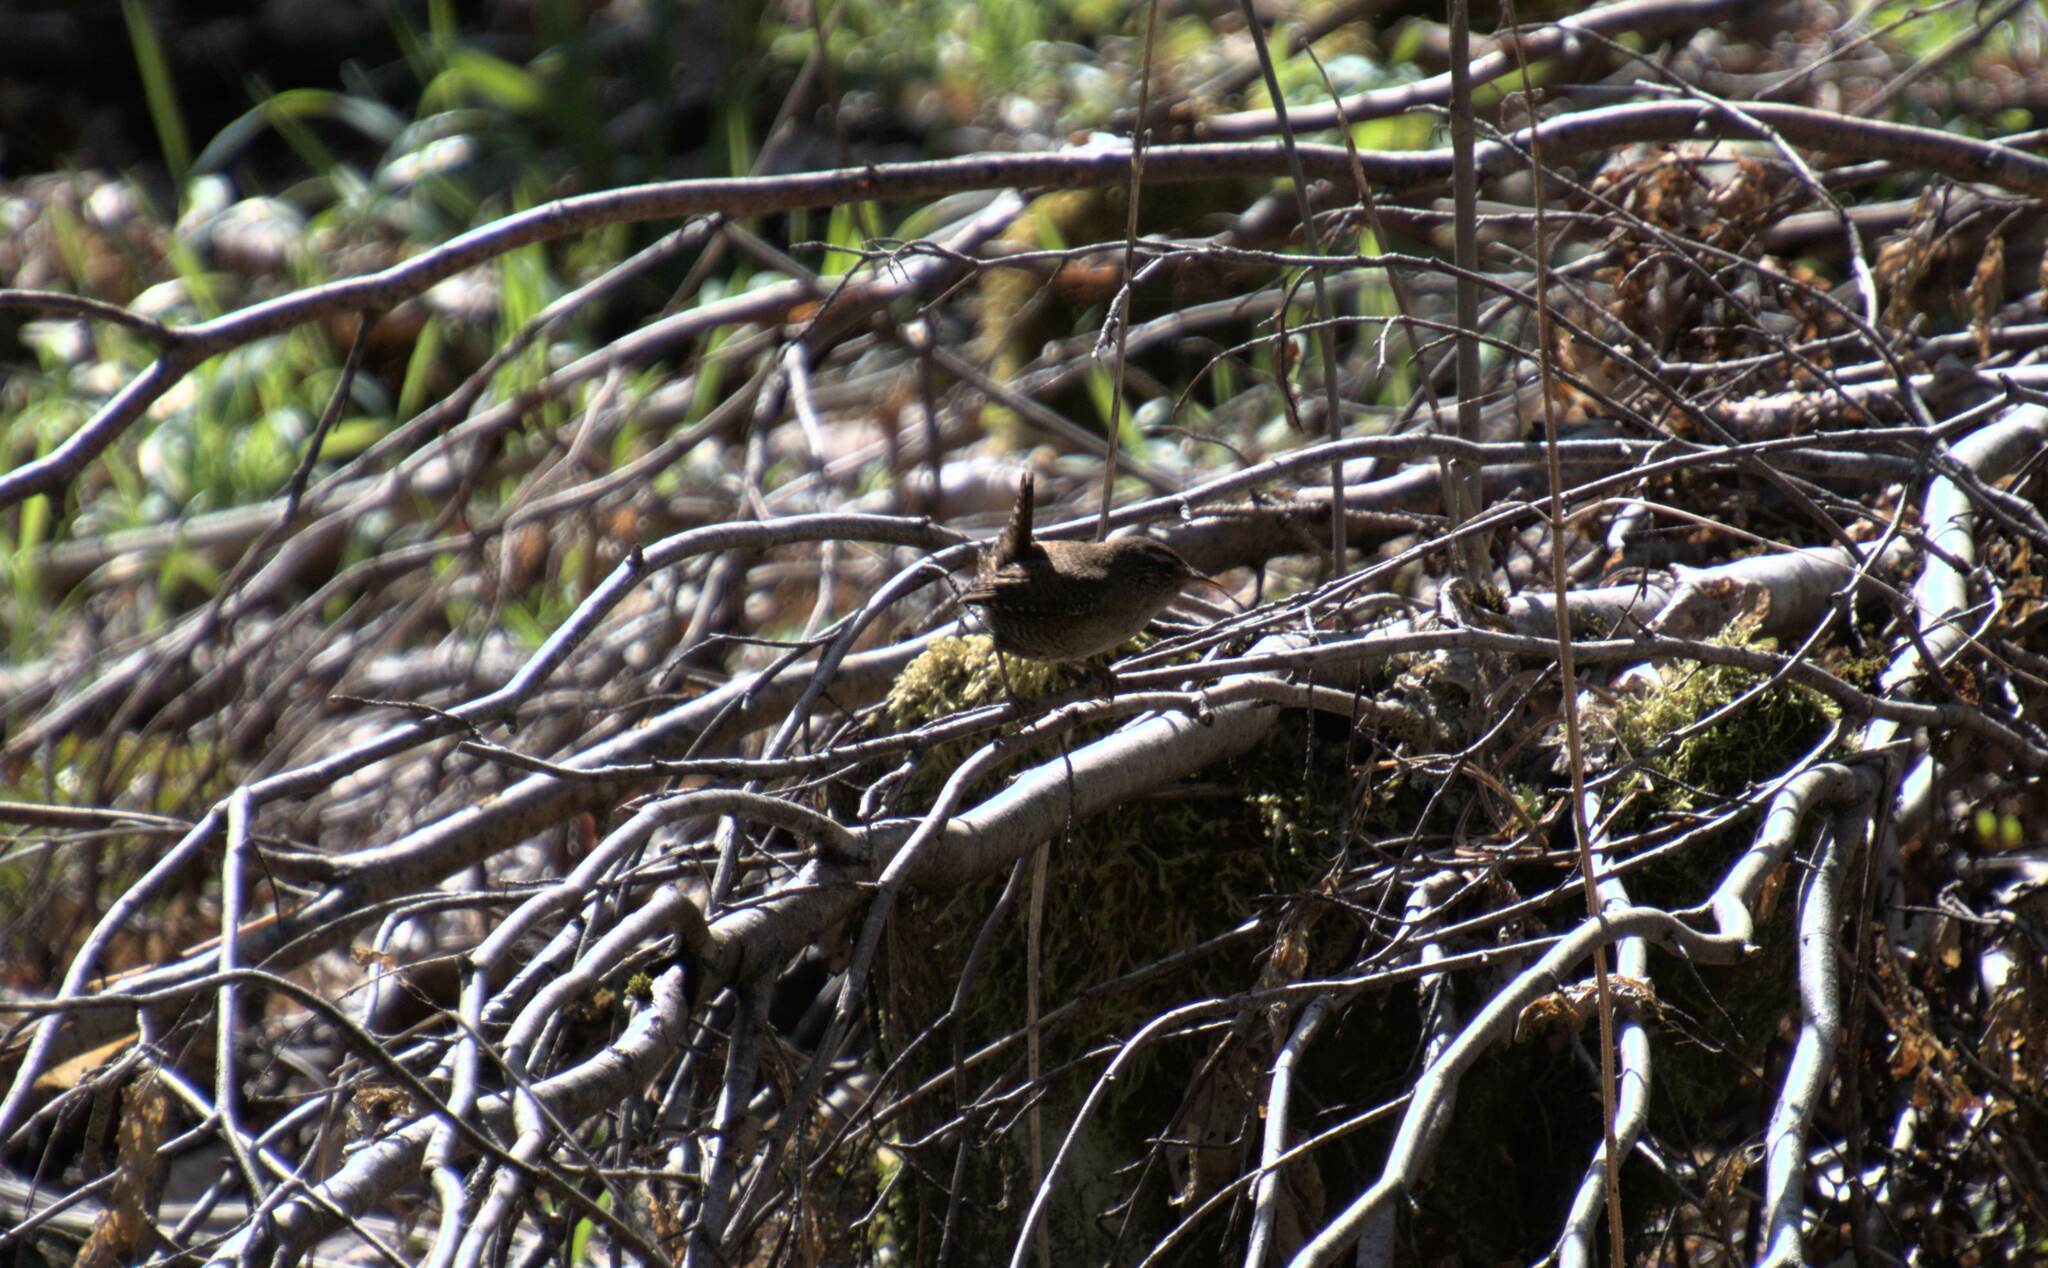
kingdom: Animalia
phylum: Chordata
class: Aves
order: Passeriformes
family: Troglodytidae
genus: Troglodytes
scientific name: Troglodytes troglodytes
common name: Eurasian wren
